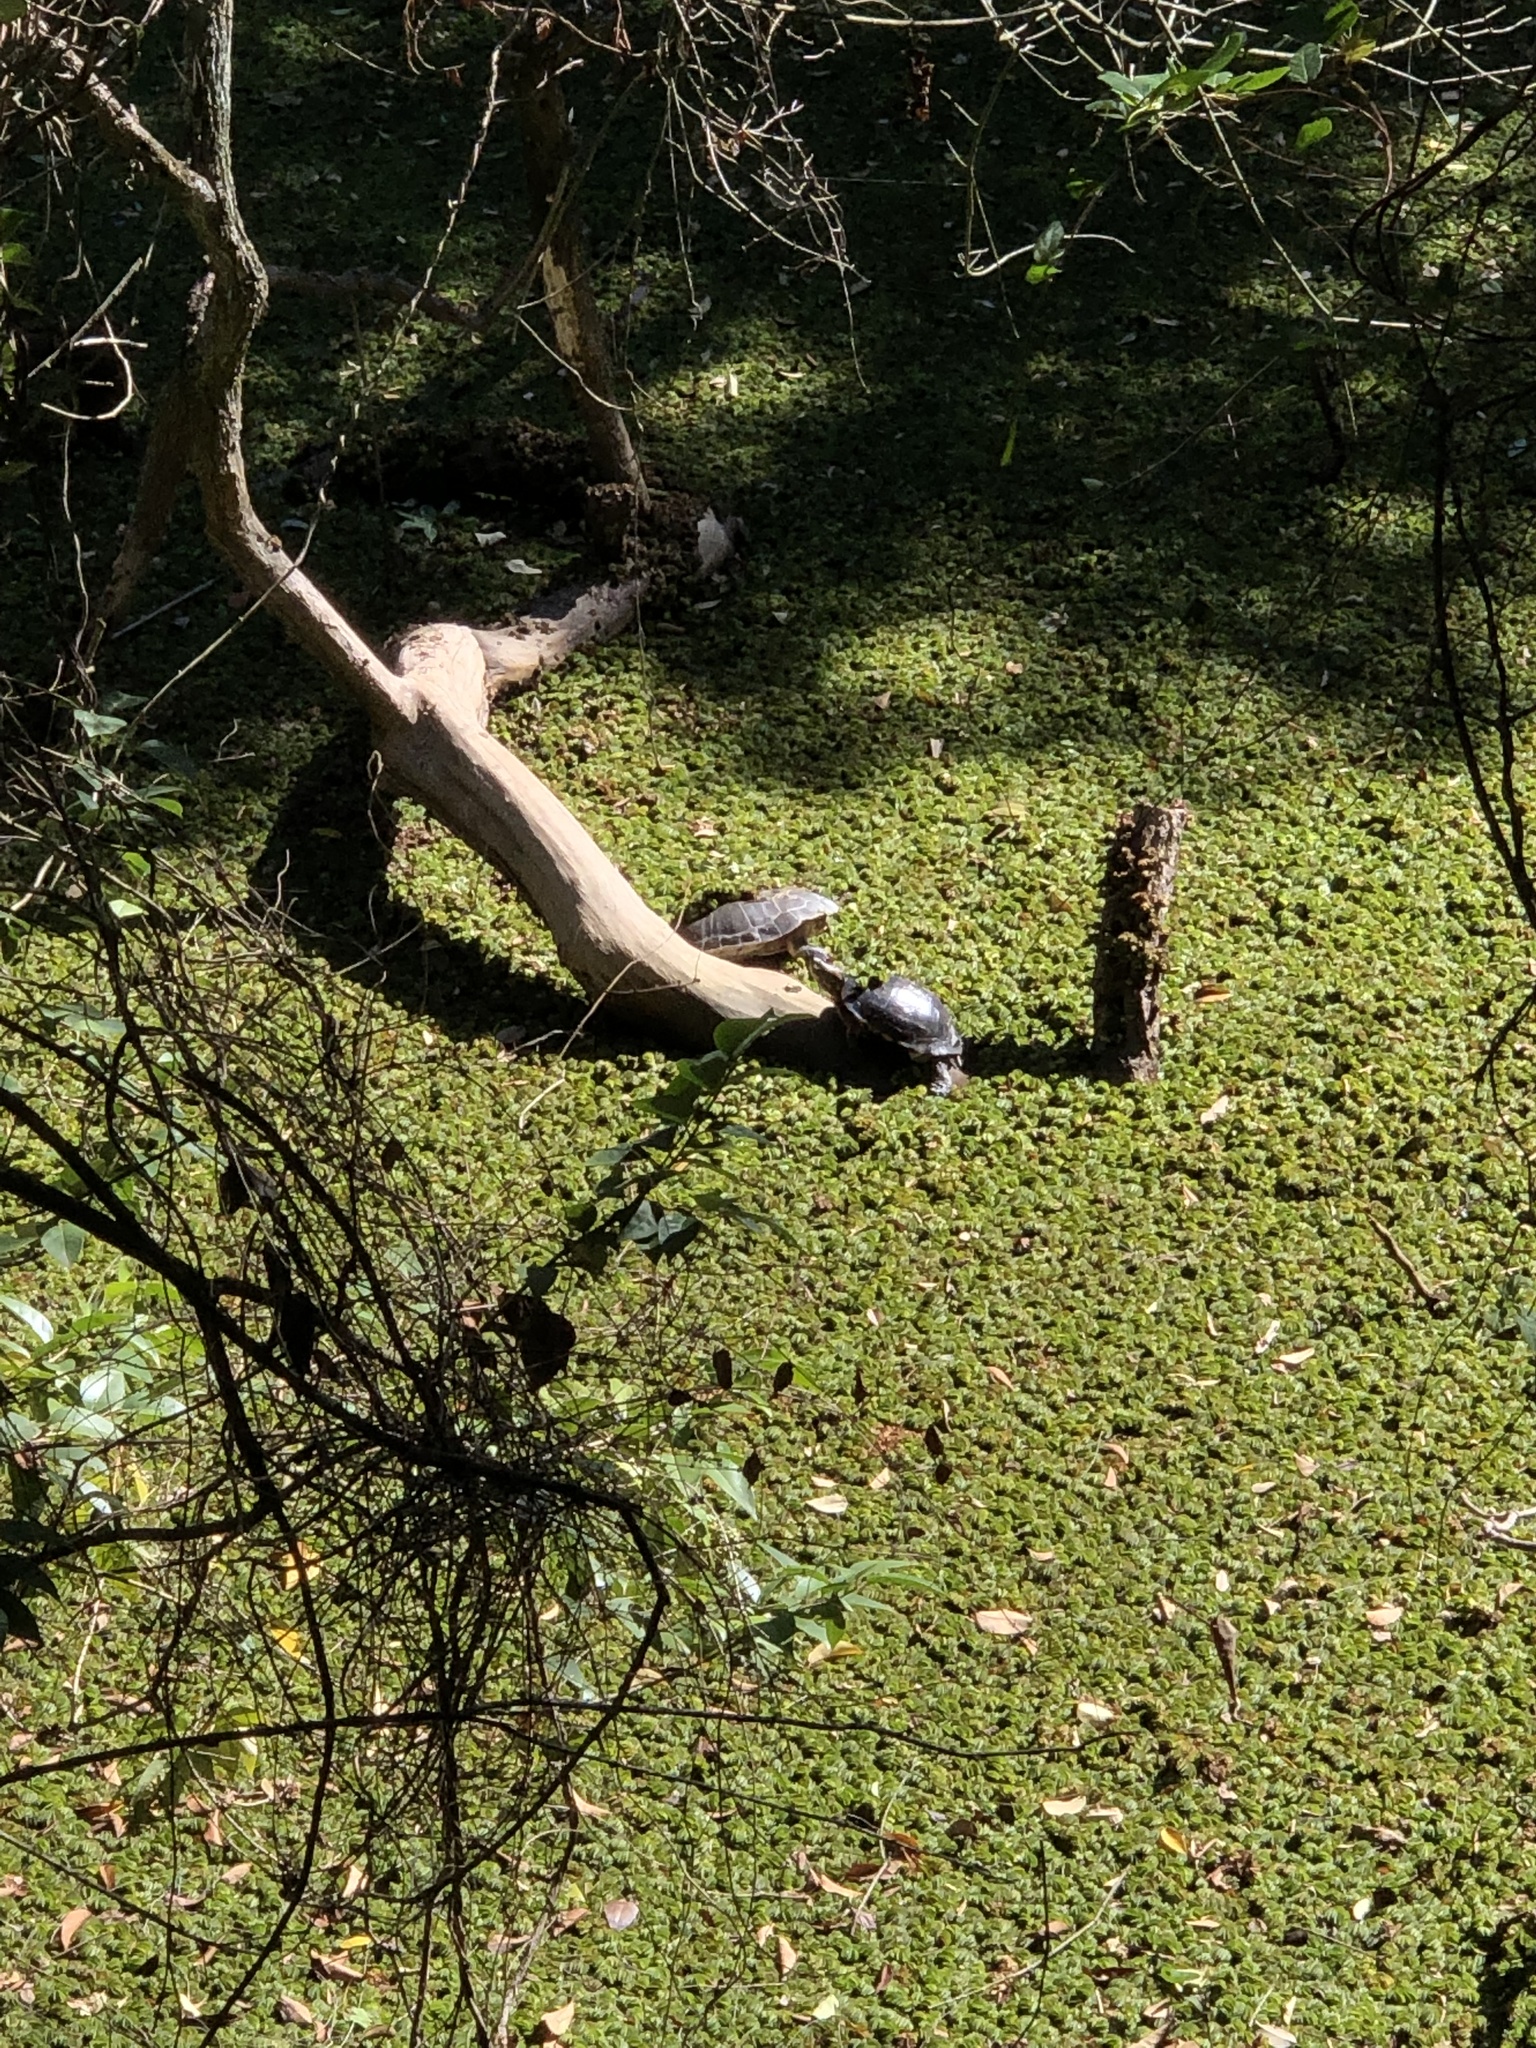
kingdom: Animalia
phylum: Chordata
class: Testudines
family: Chelidae
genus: Phrynops
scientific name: Phrynops hilarii
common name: Side-necked turtle of saint hillaire
